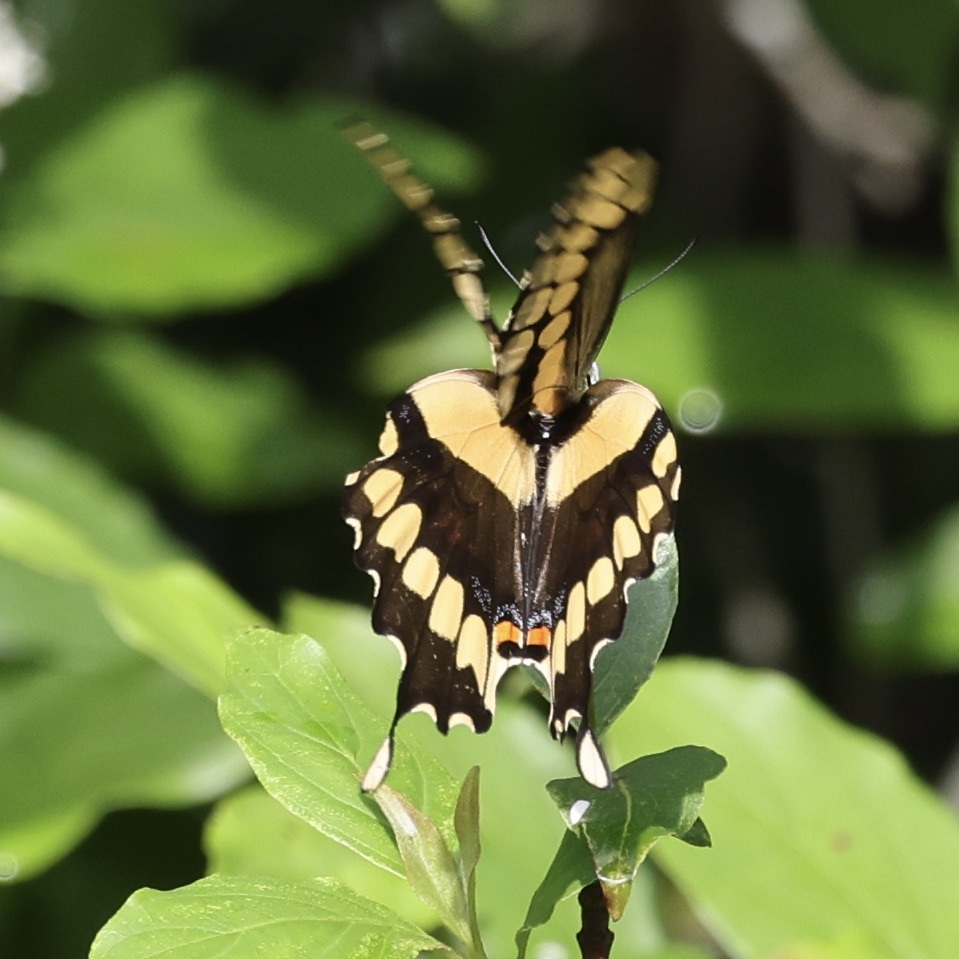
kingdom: Animalia
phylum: Arthropoda
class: Insecta
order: Lepidoptera
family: Papilionidae
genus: Papilio
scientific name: Papilio cresphontes
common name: Giant swallowtail
